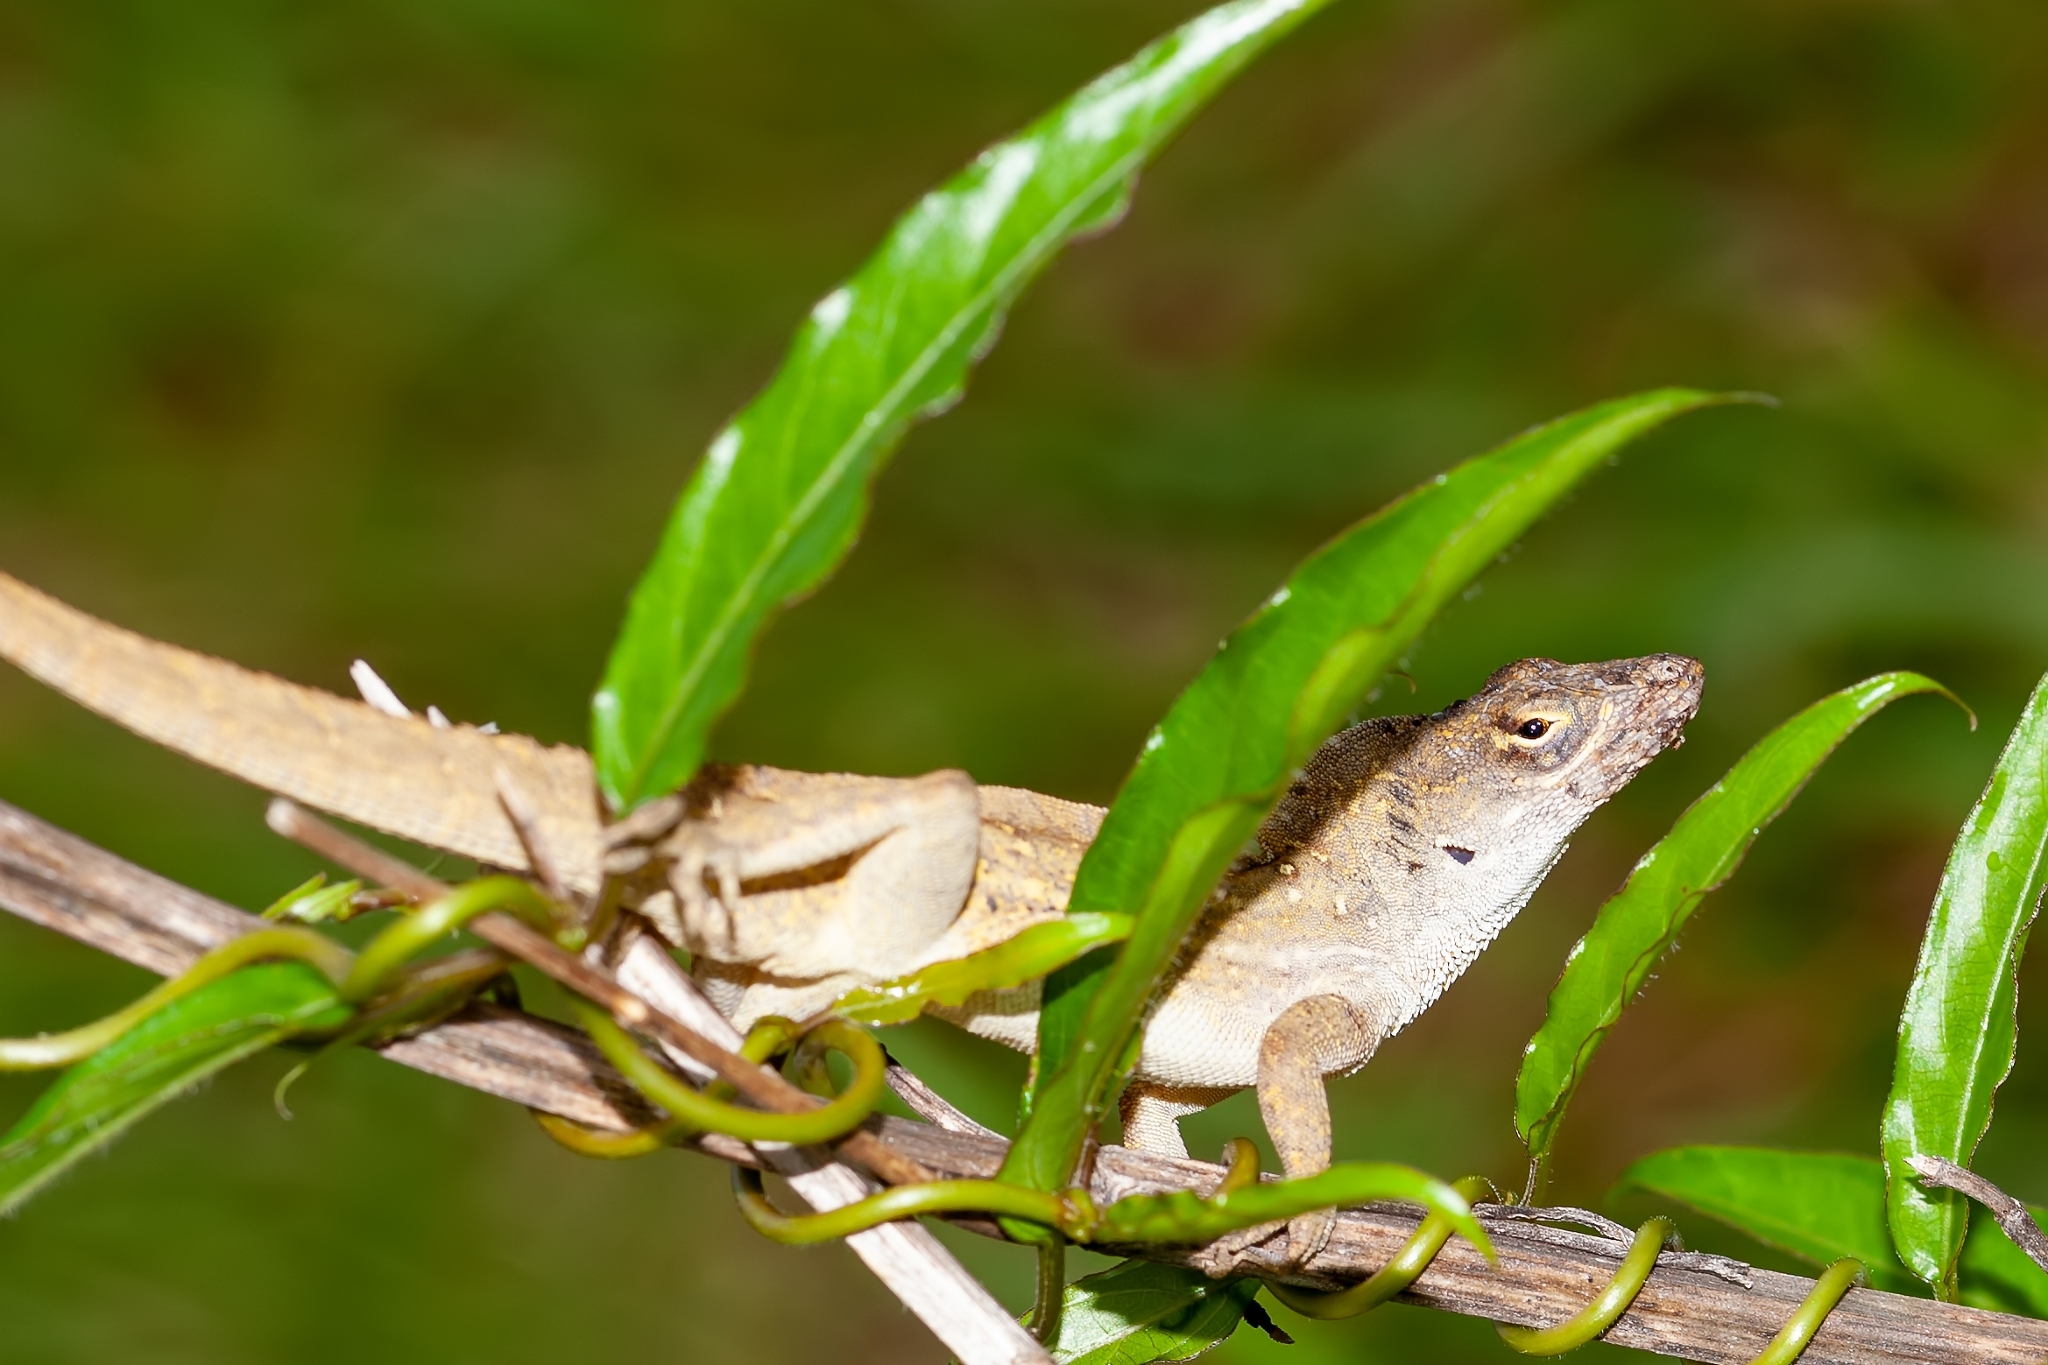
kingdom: Animalia
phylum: Chordata
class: Squamata
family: Dactyloidae
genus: Anolis
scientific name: Anolis sagrei
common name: Brown anole
